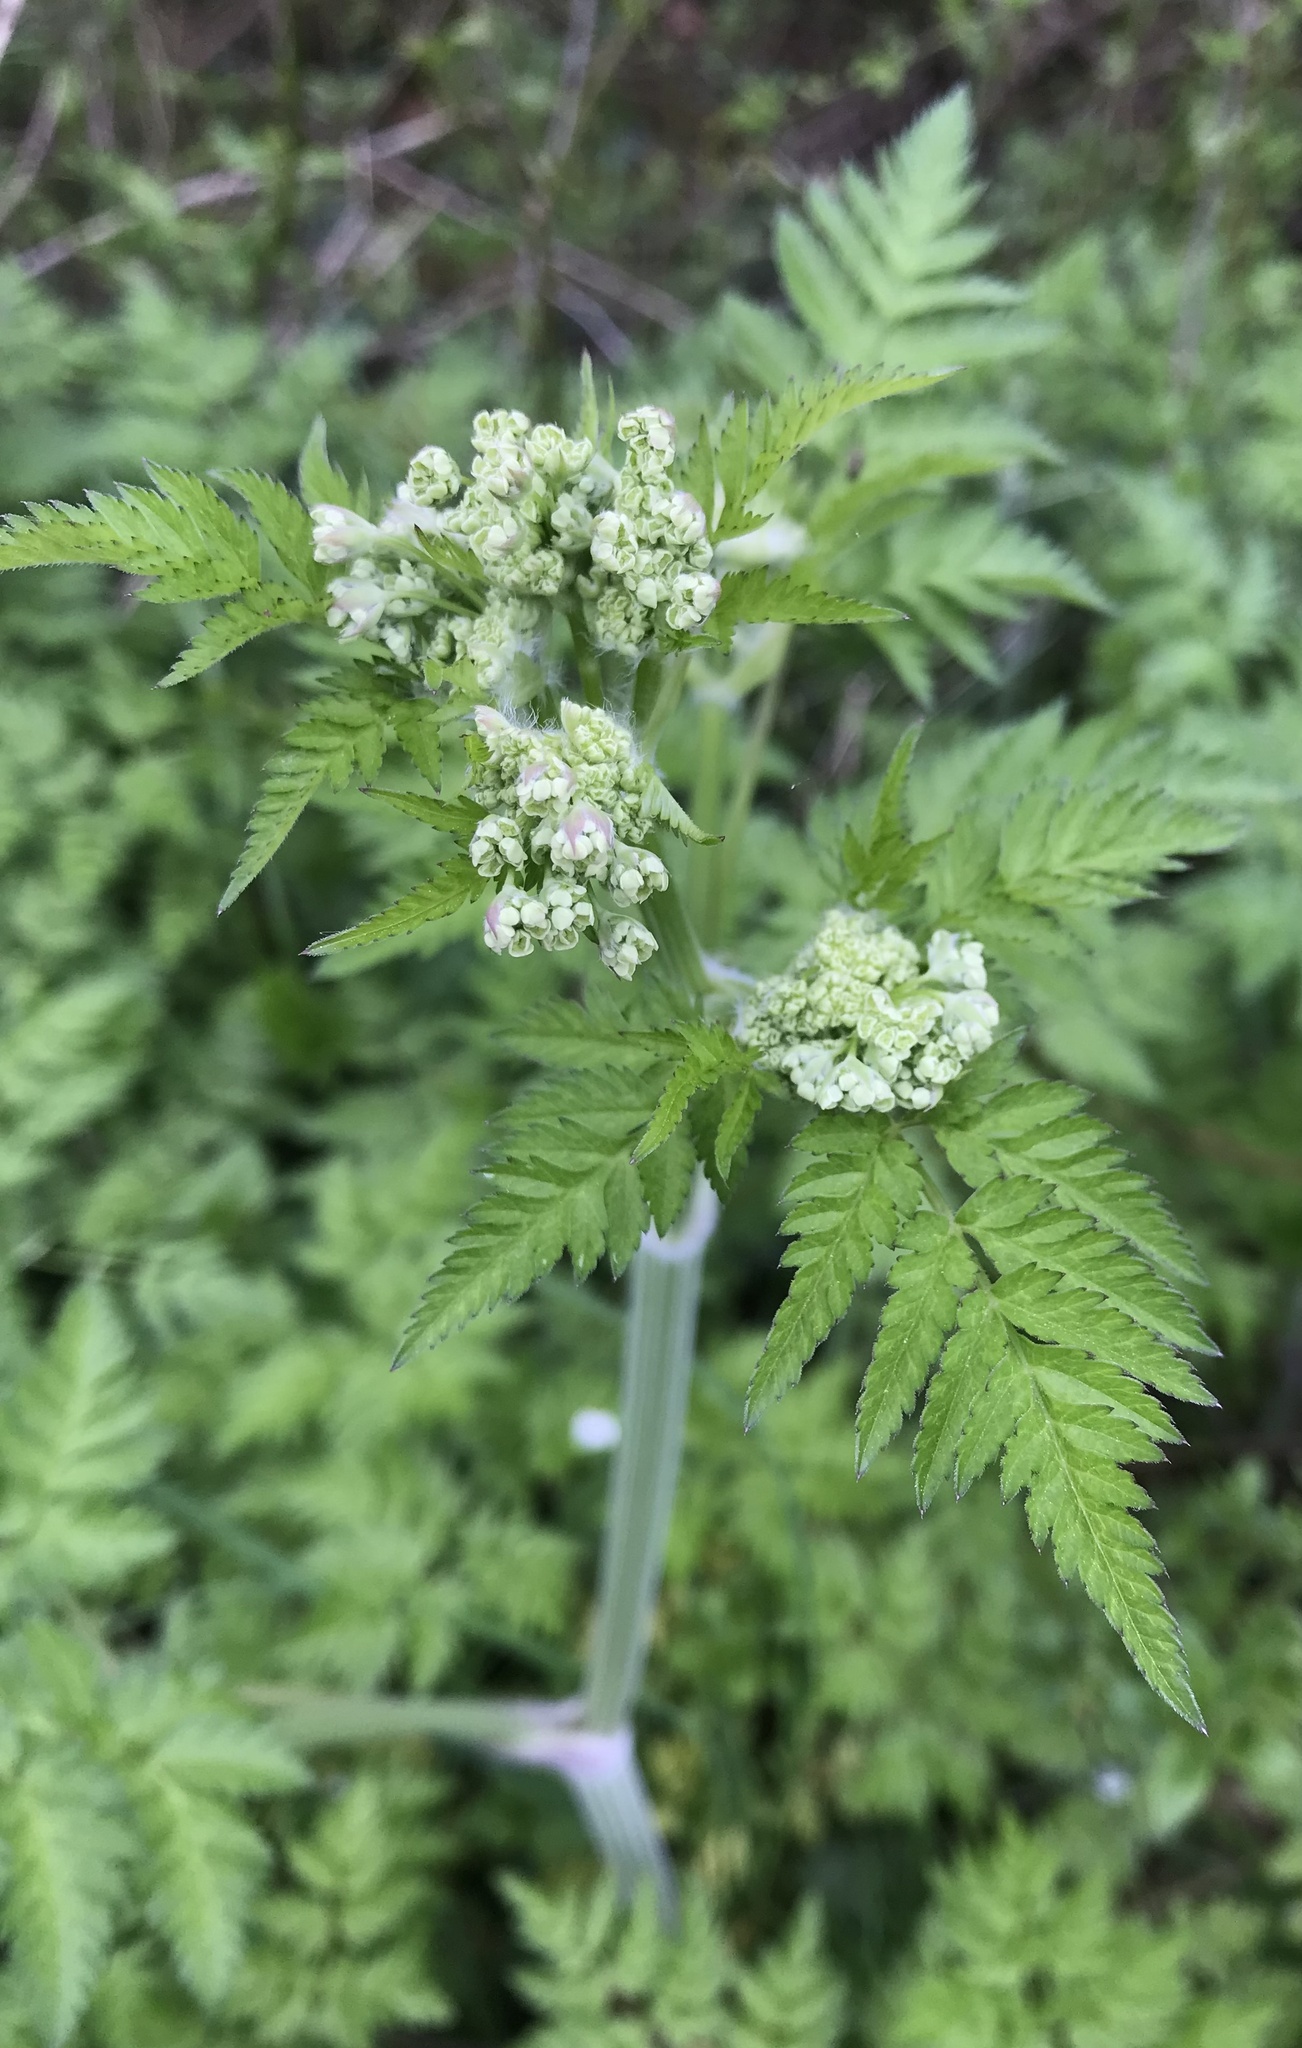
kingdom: Plantae
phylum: Tracheophyta
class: Magnoliopsida
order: Apiales
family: Apiaceae
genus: Anthriscus
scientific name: Anthriscus sylvestris
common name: Cow parsley
